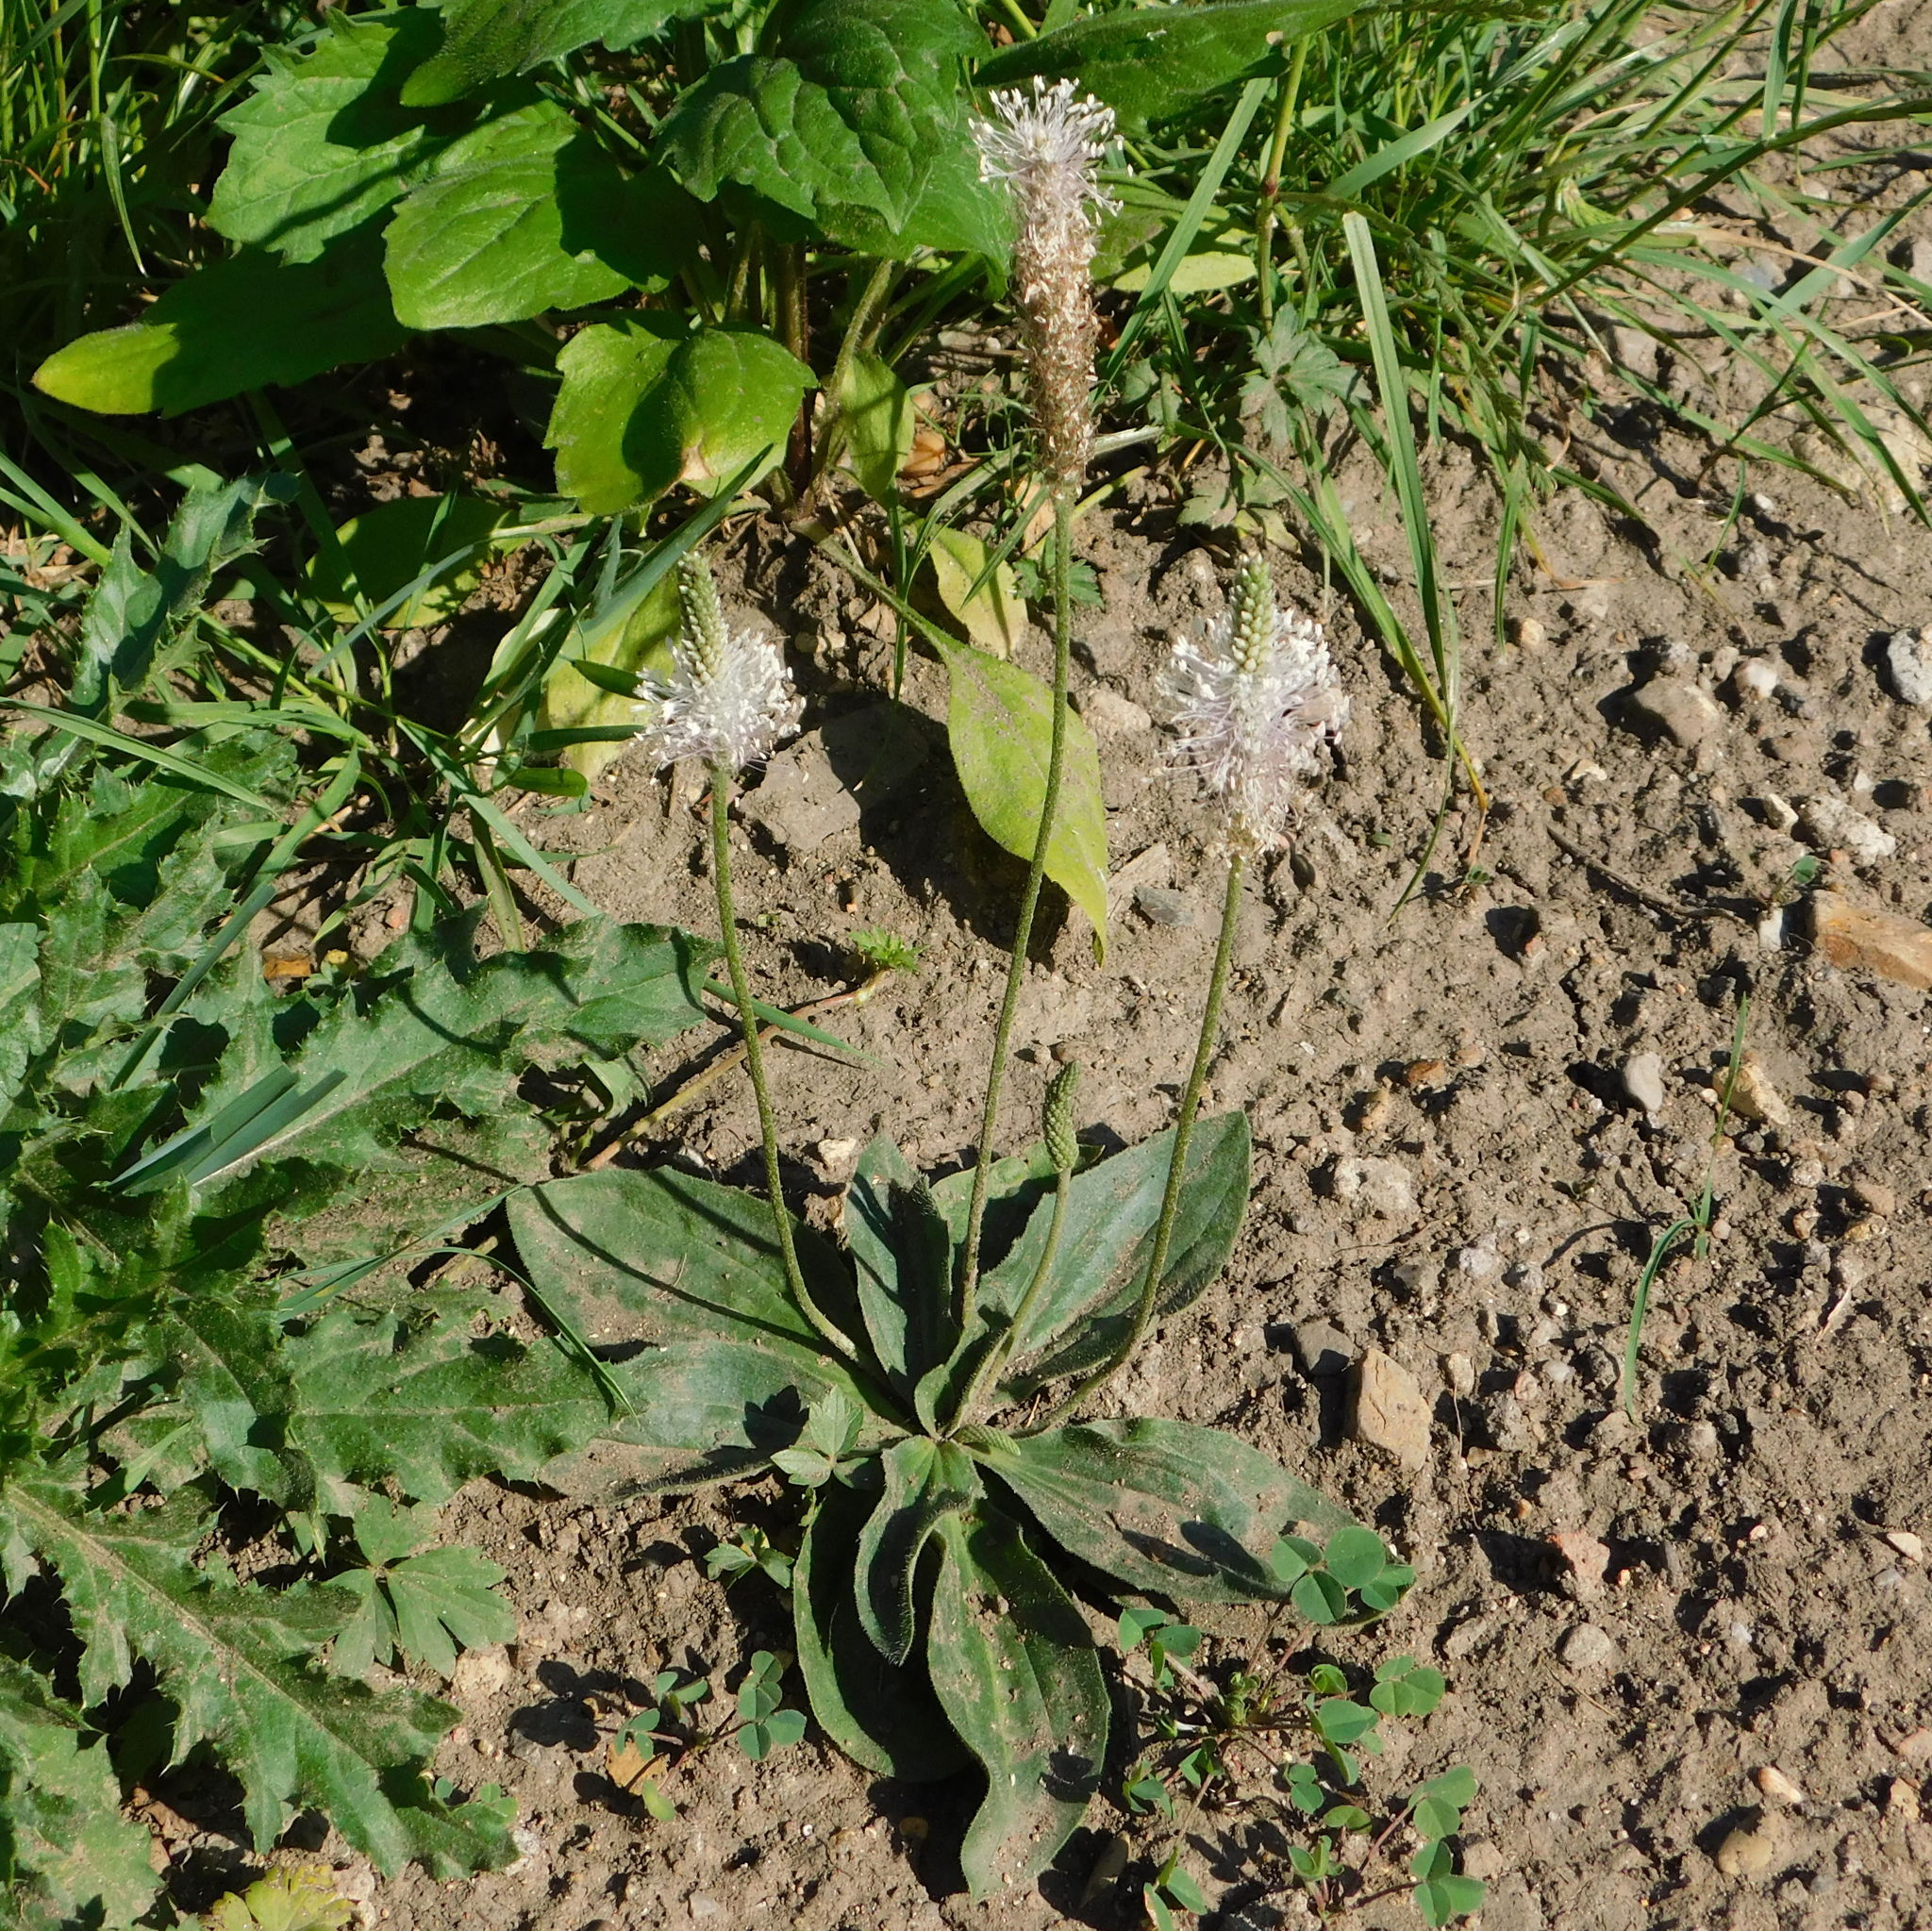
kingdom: Plantae
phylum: Tracheophyta
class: Magnoliopsida
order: Lamiales
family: Plantaginaceae
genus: Plantago
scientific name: Plantago media
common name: Hoary plantain
